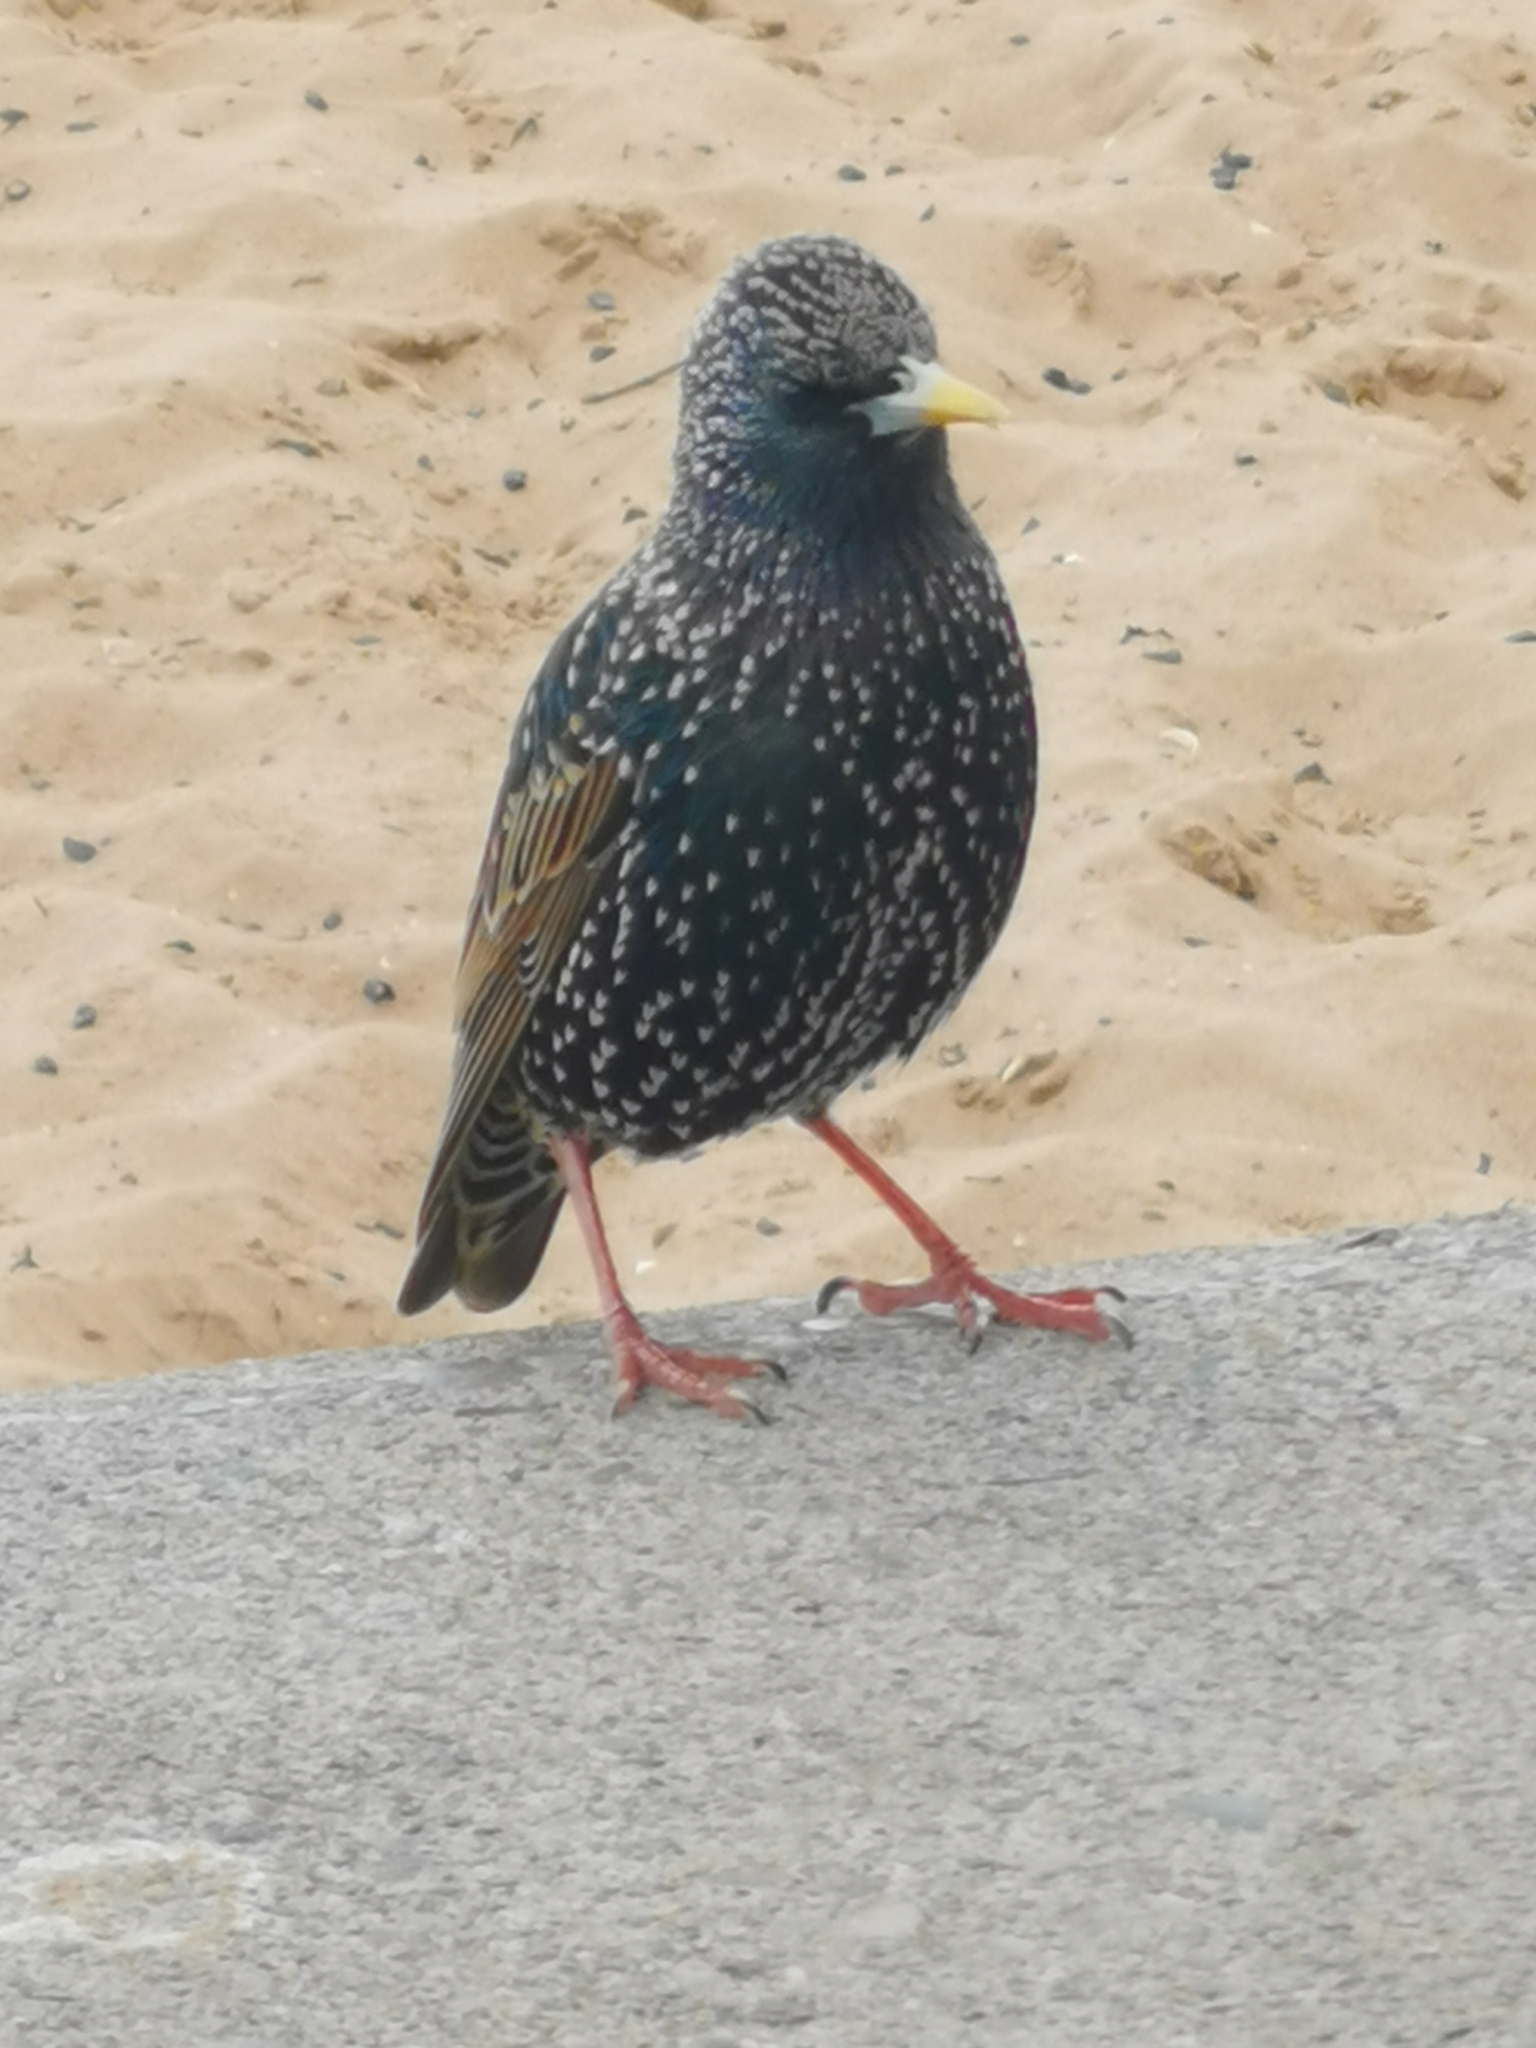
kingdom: Animalia
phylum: Chordata
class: Aves
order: Passeriformes
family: Sturnidae
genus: Sturnus
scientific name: Sturnus vulgaris
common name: Common starling
